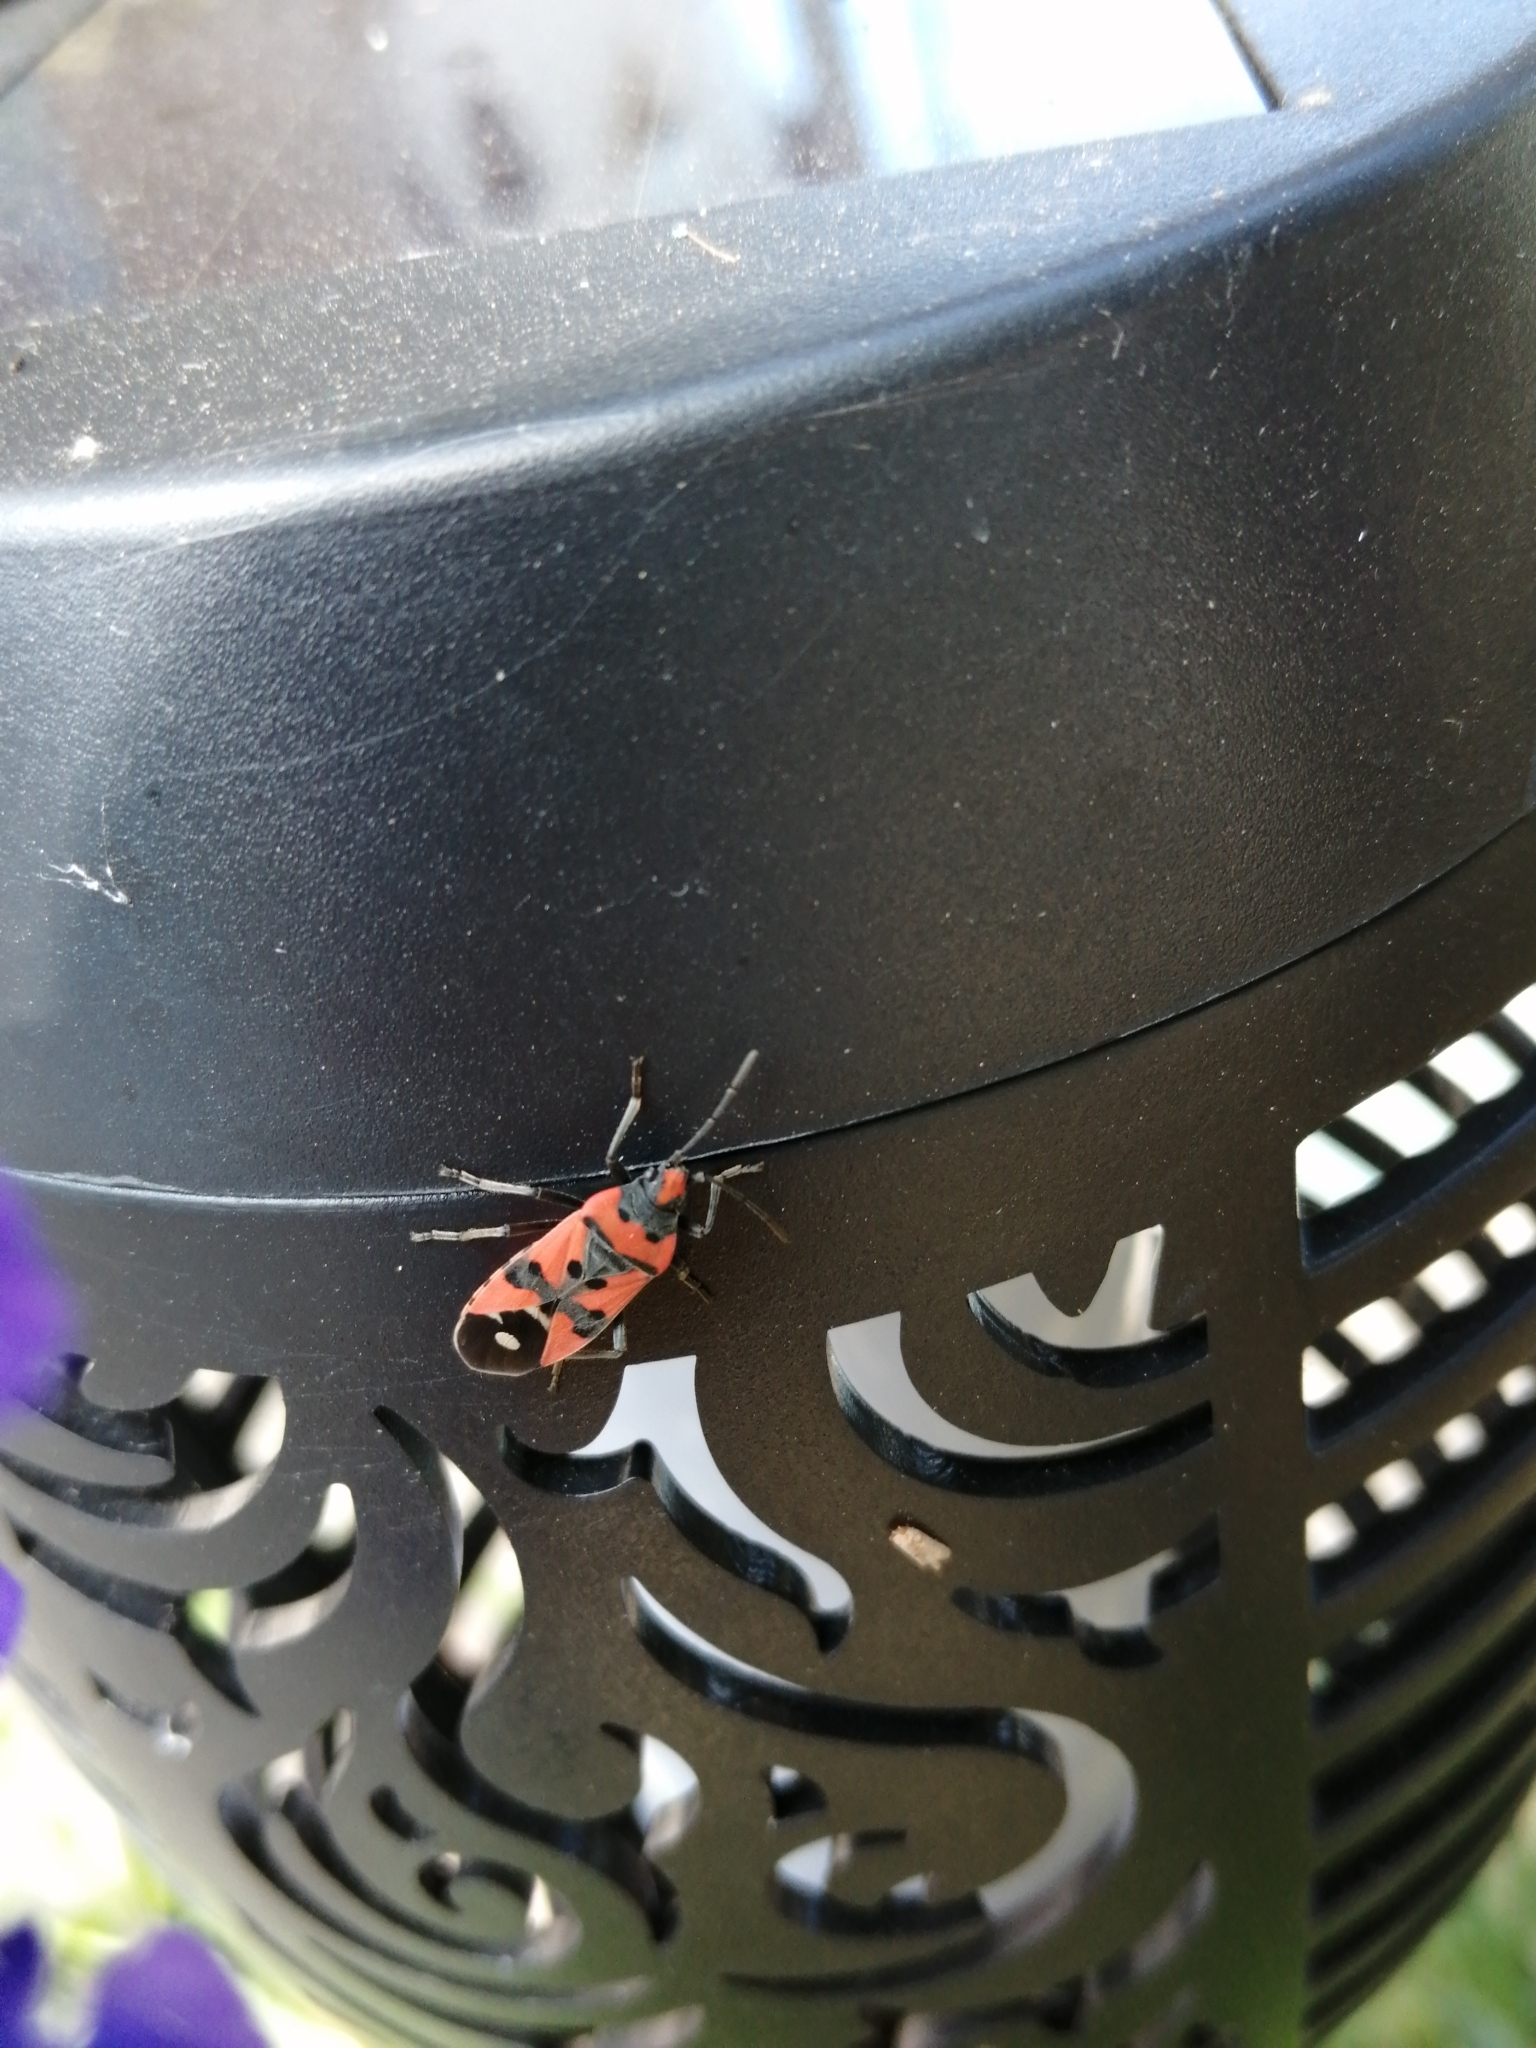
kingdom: Animalia
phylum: Arthropoda
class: Insecta
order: Hemiptera
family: Lygaeidae
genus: Lygaeus
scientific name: Lygaeus equestris
